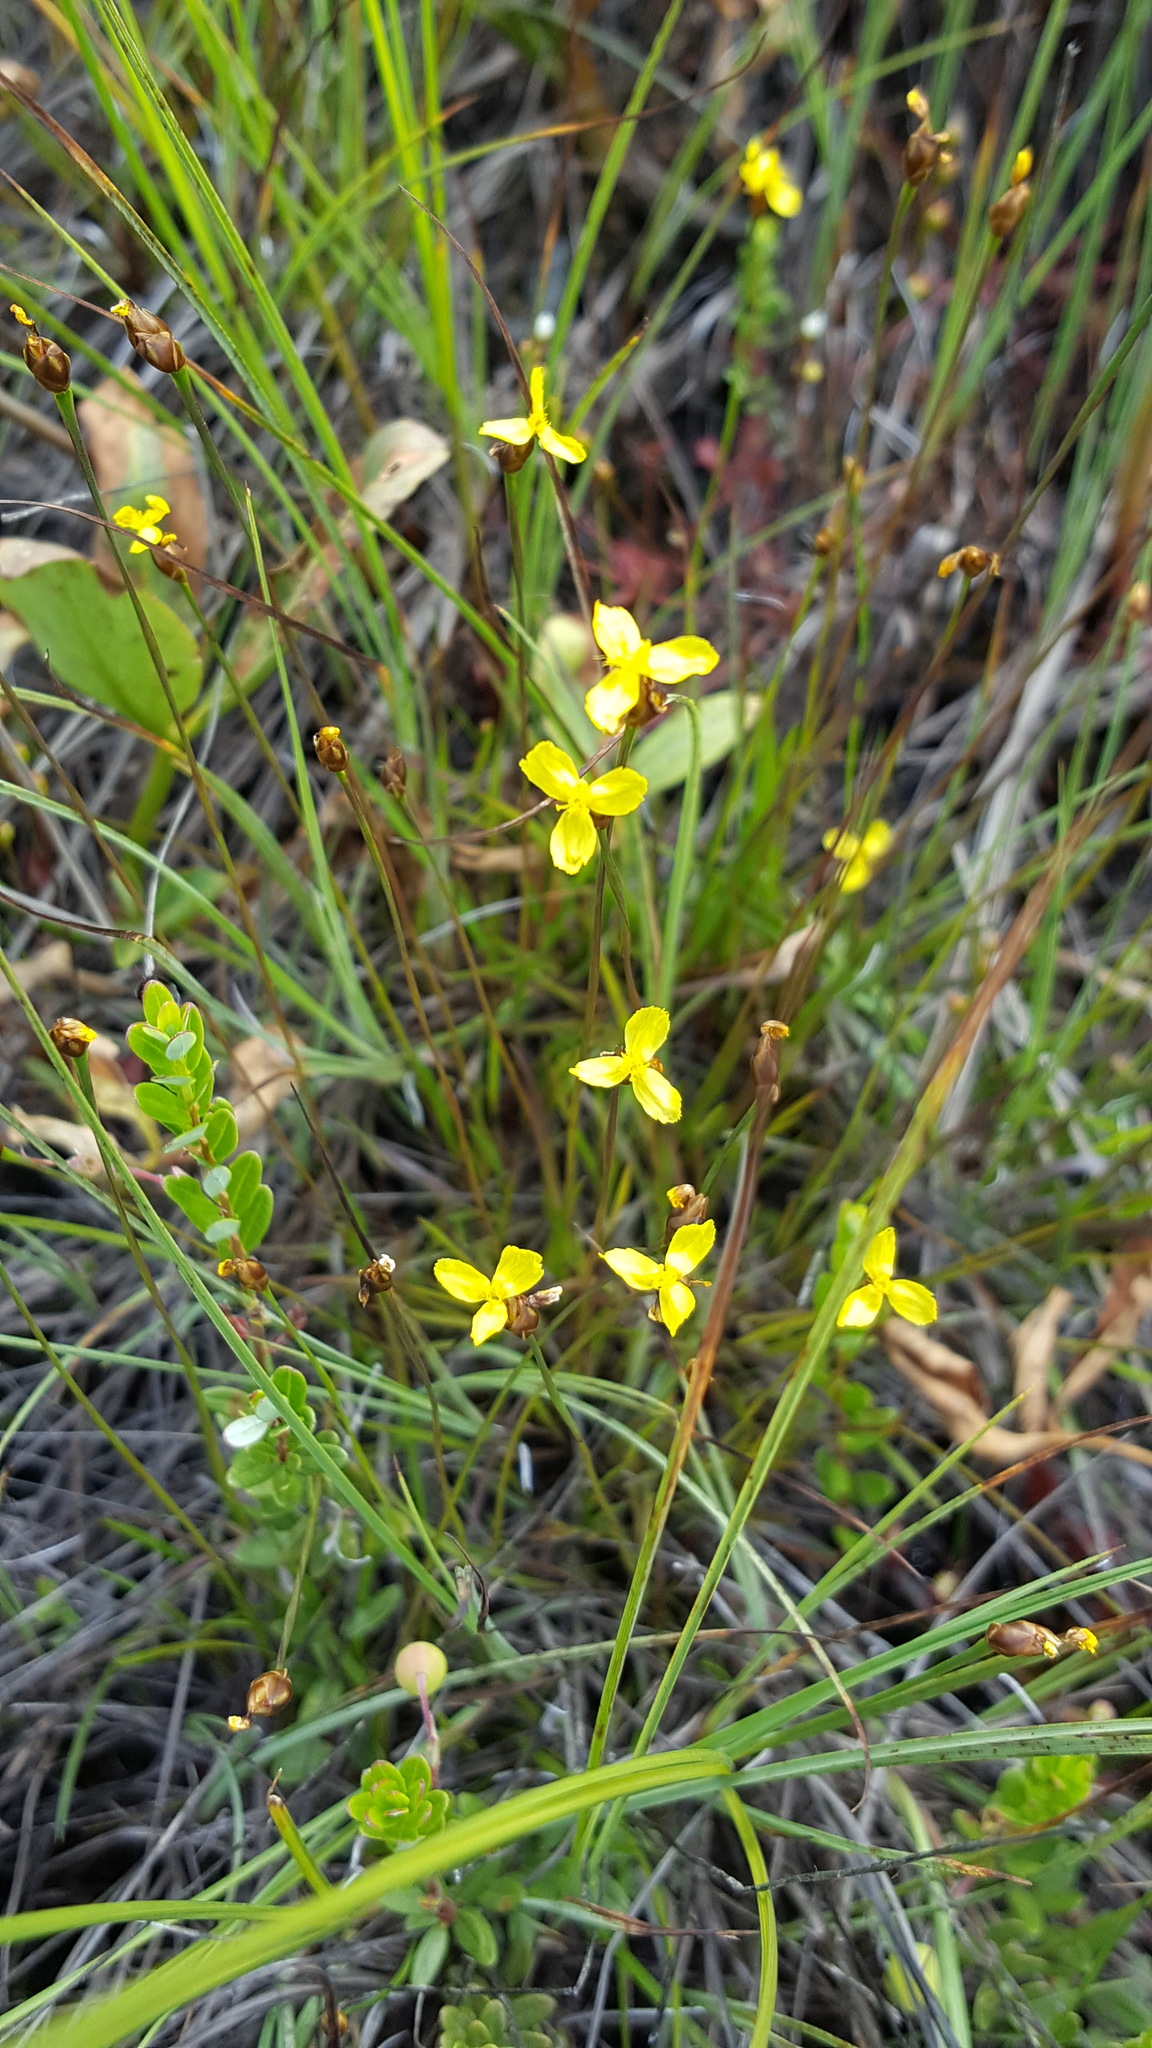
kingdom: Plantae
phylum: Tracheophyta
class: Liliopsida
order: Poales
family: Xyridaceae
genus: Xyris
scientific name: Xyris montana
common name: Northern yellow-eyed-grass
